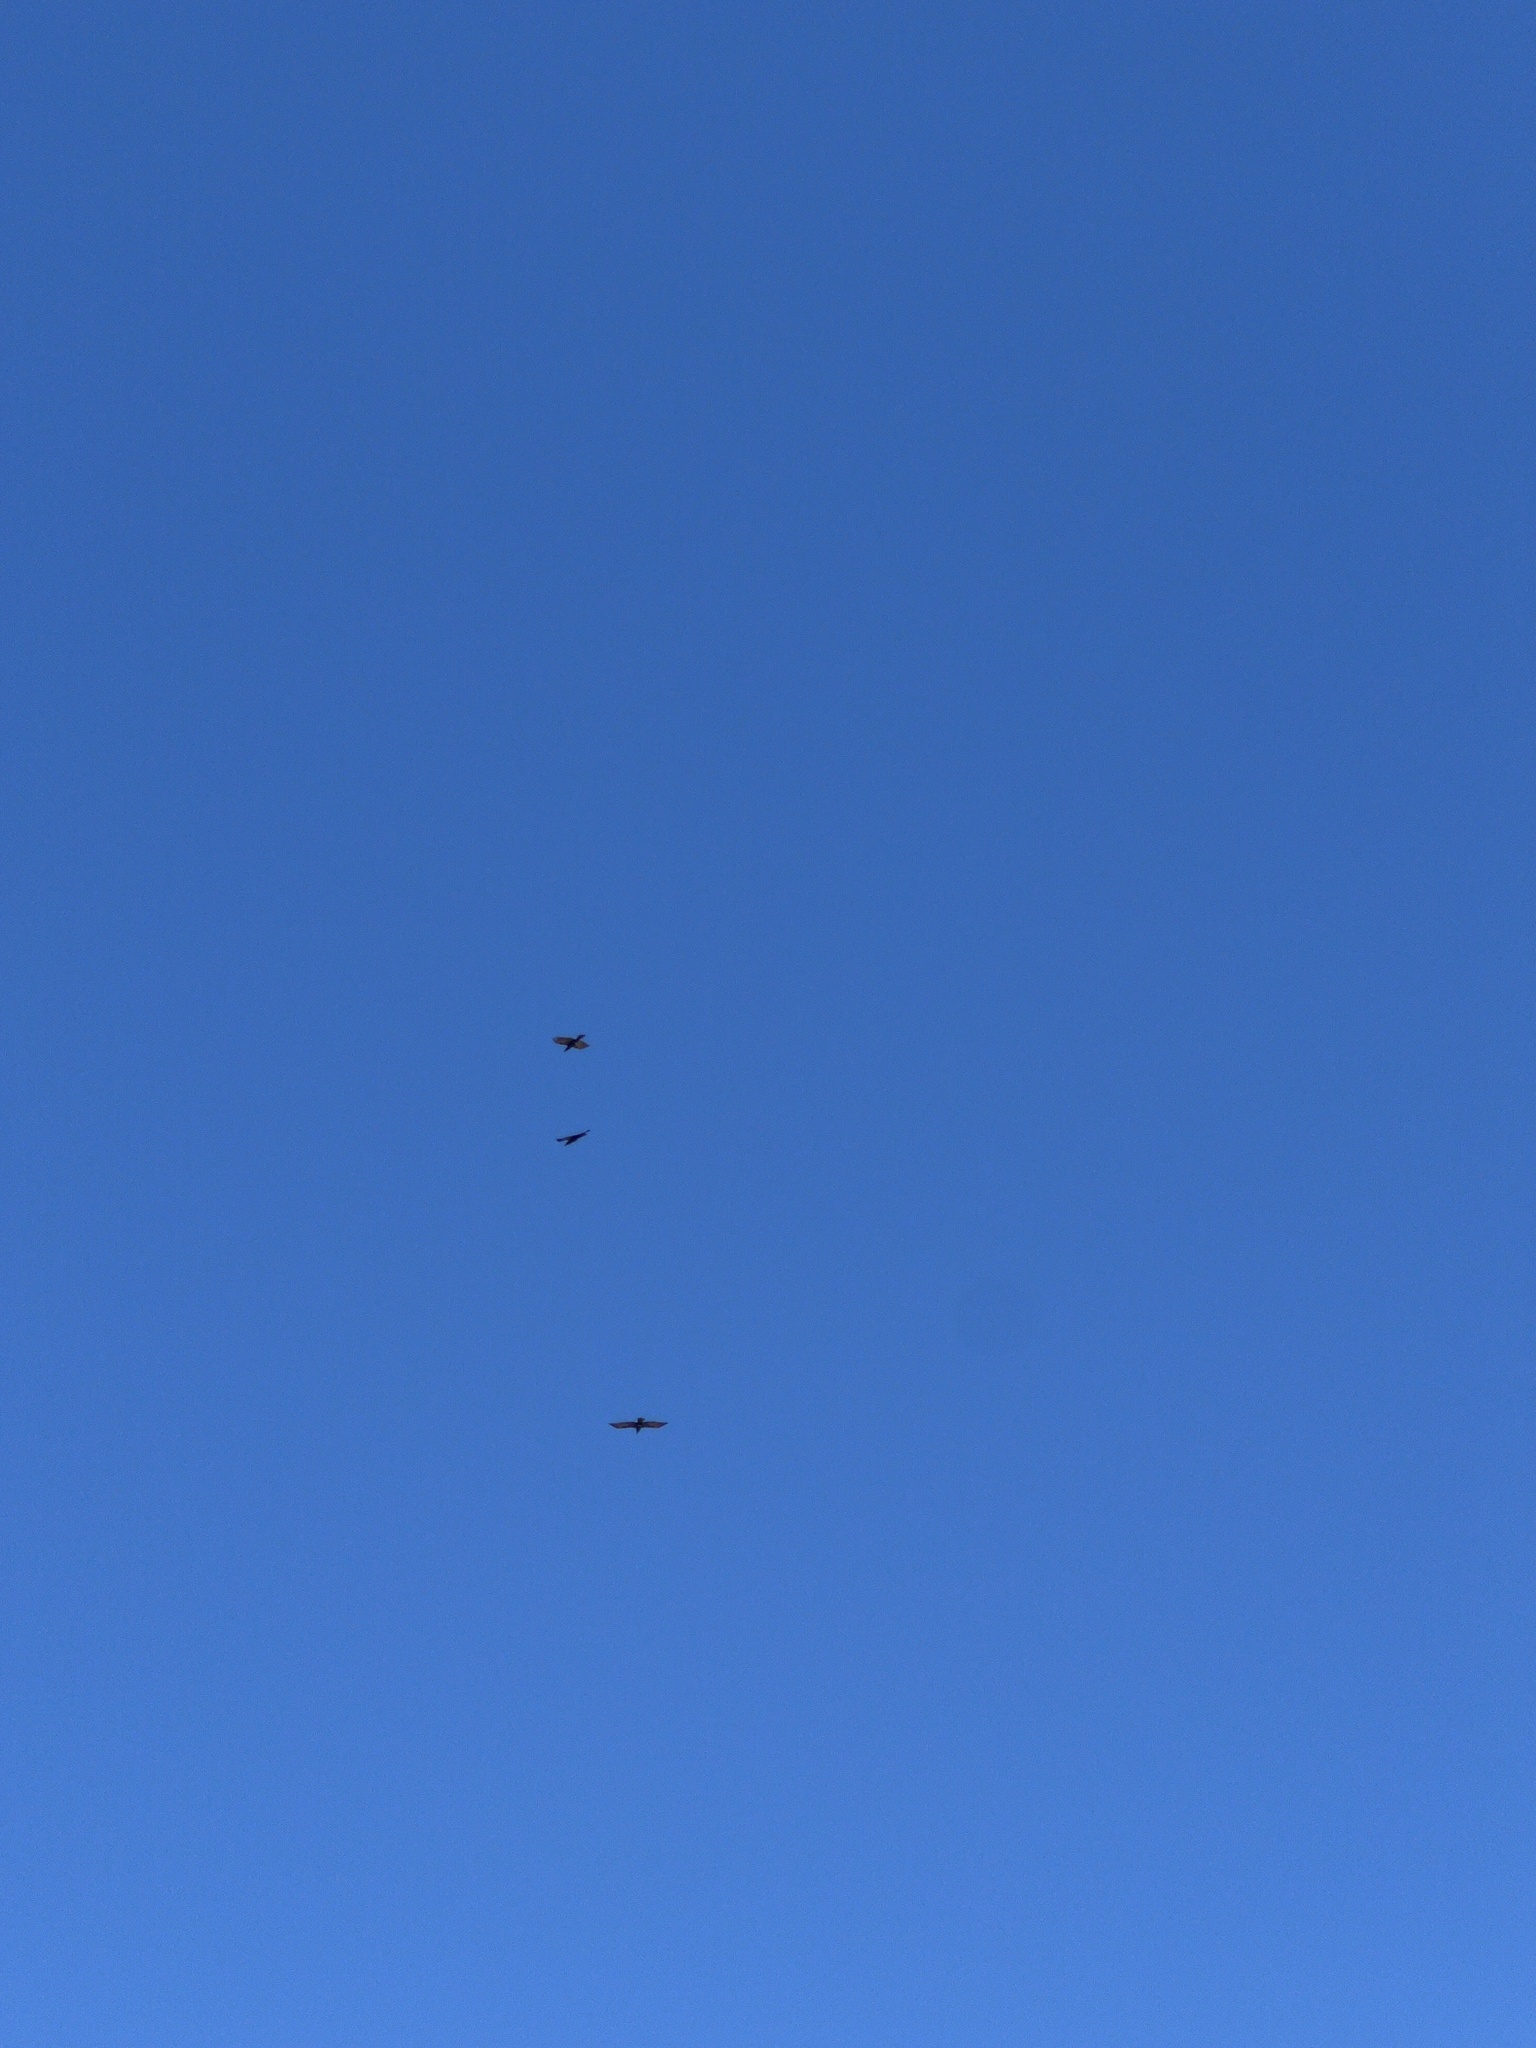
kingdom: Animalia
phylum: Chordata
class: Aves
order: Passeriformes
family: Corvidae
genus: Corvus
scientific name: Corvus corax
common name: Common raven
